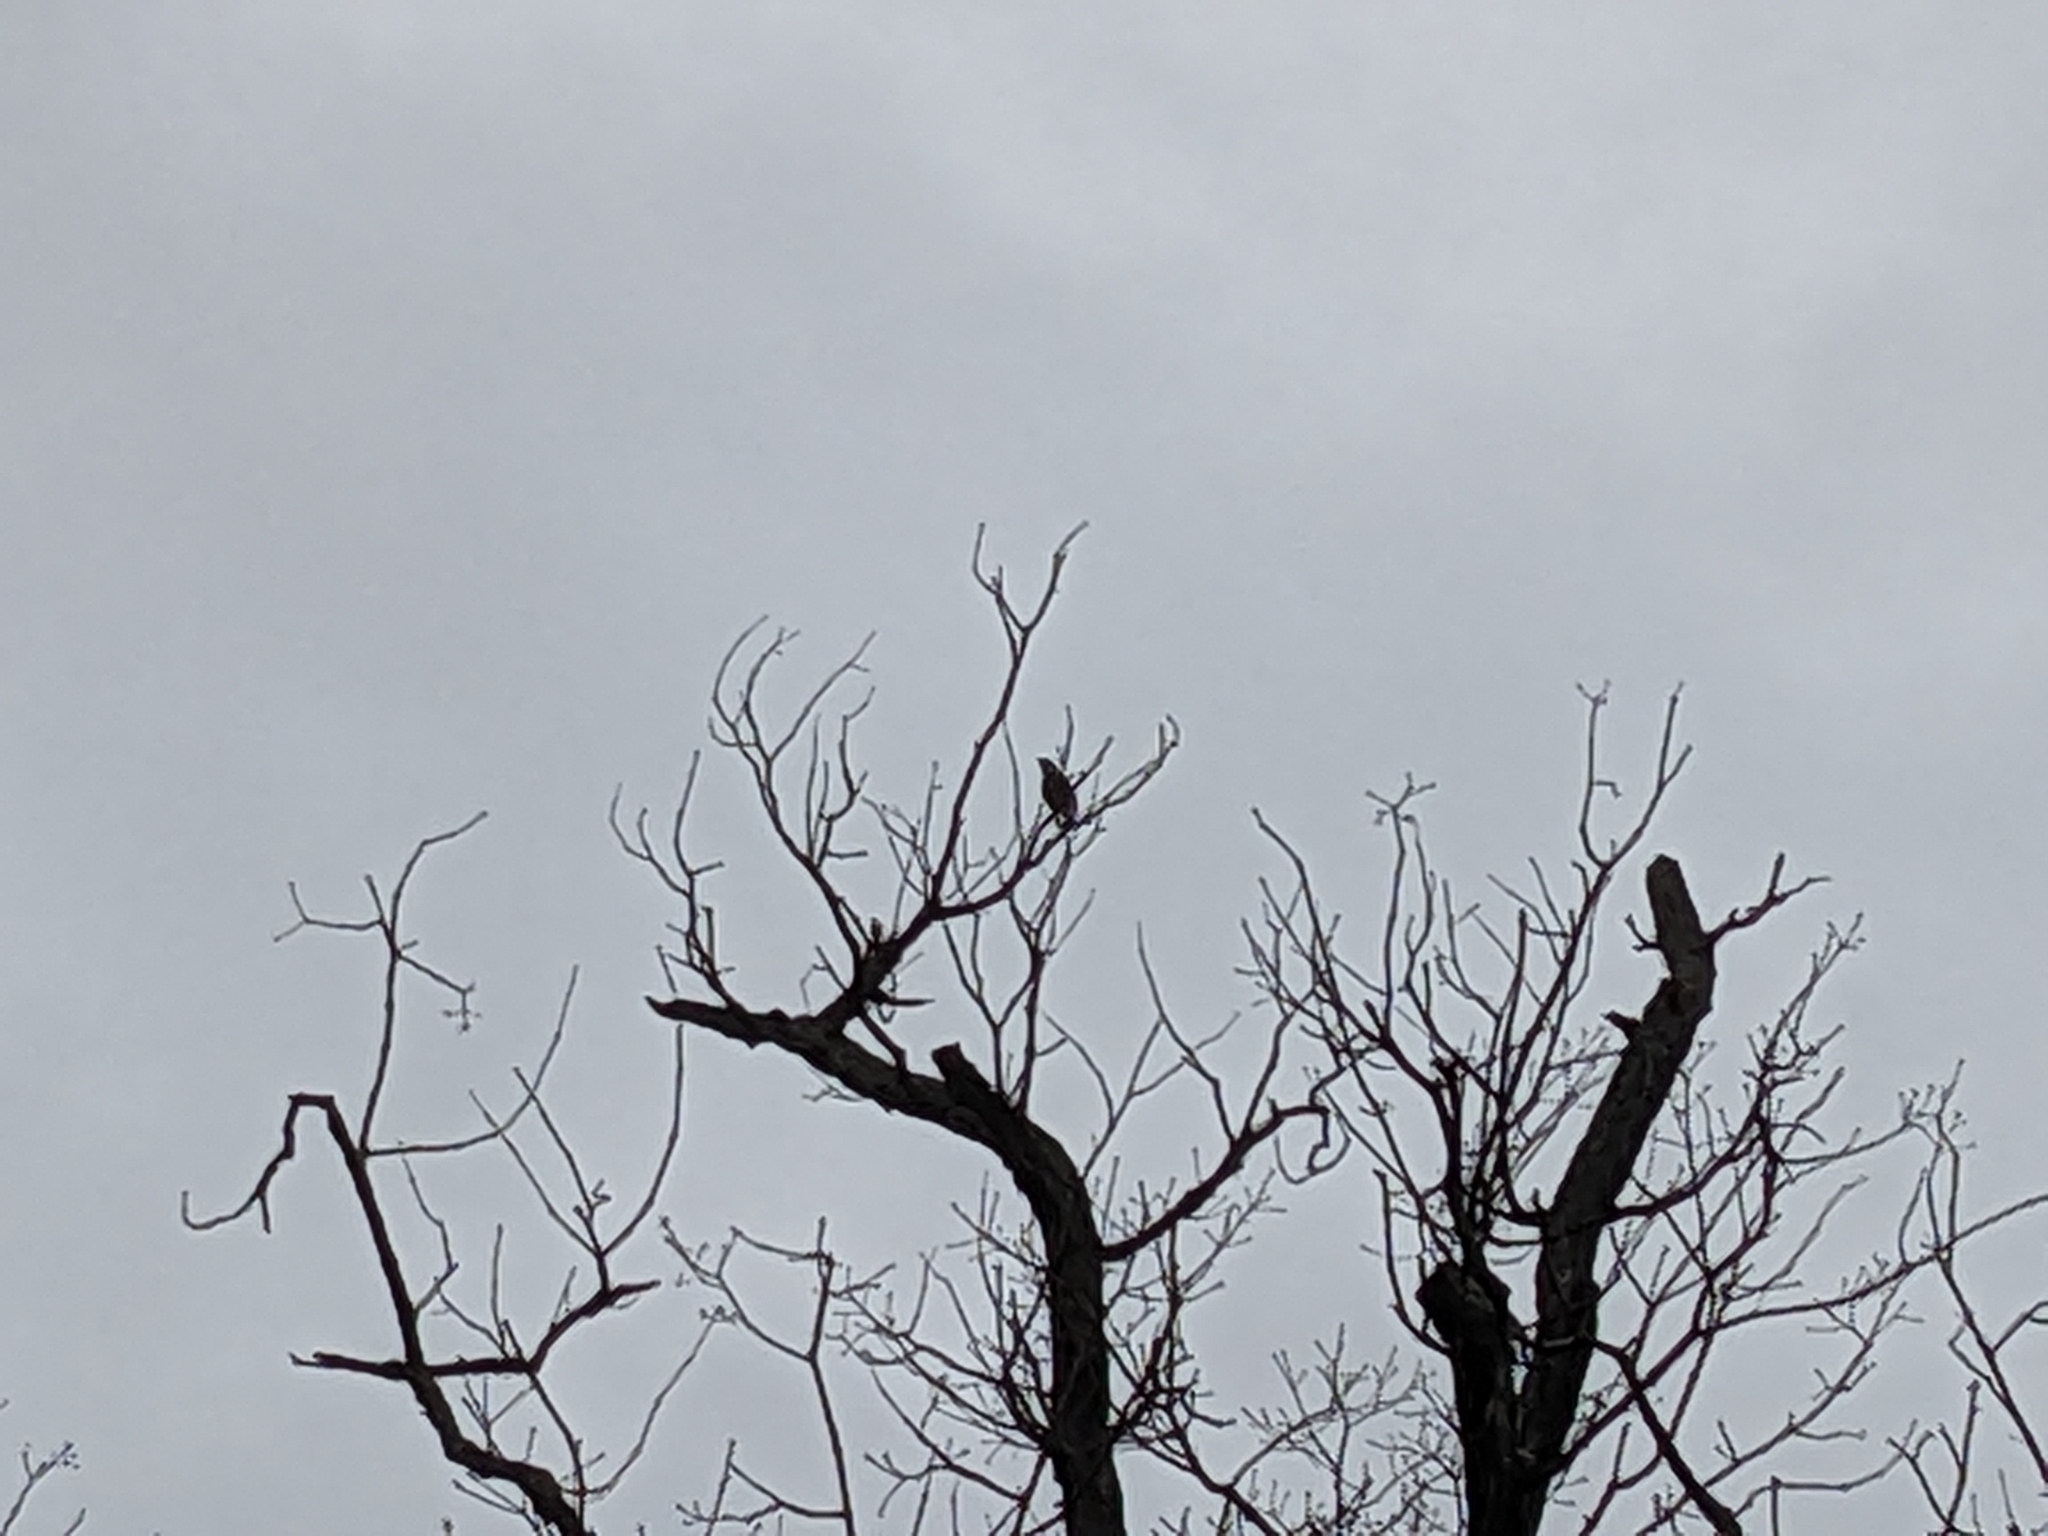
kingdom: Animalia
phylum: Chordata
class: Aves
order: Passeriformes
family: Corvidae
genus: Cyanocitta
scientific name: Cyanocitta cristata
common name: Blue jay
